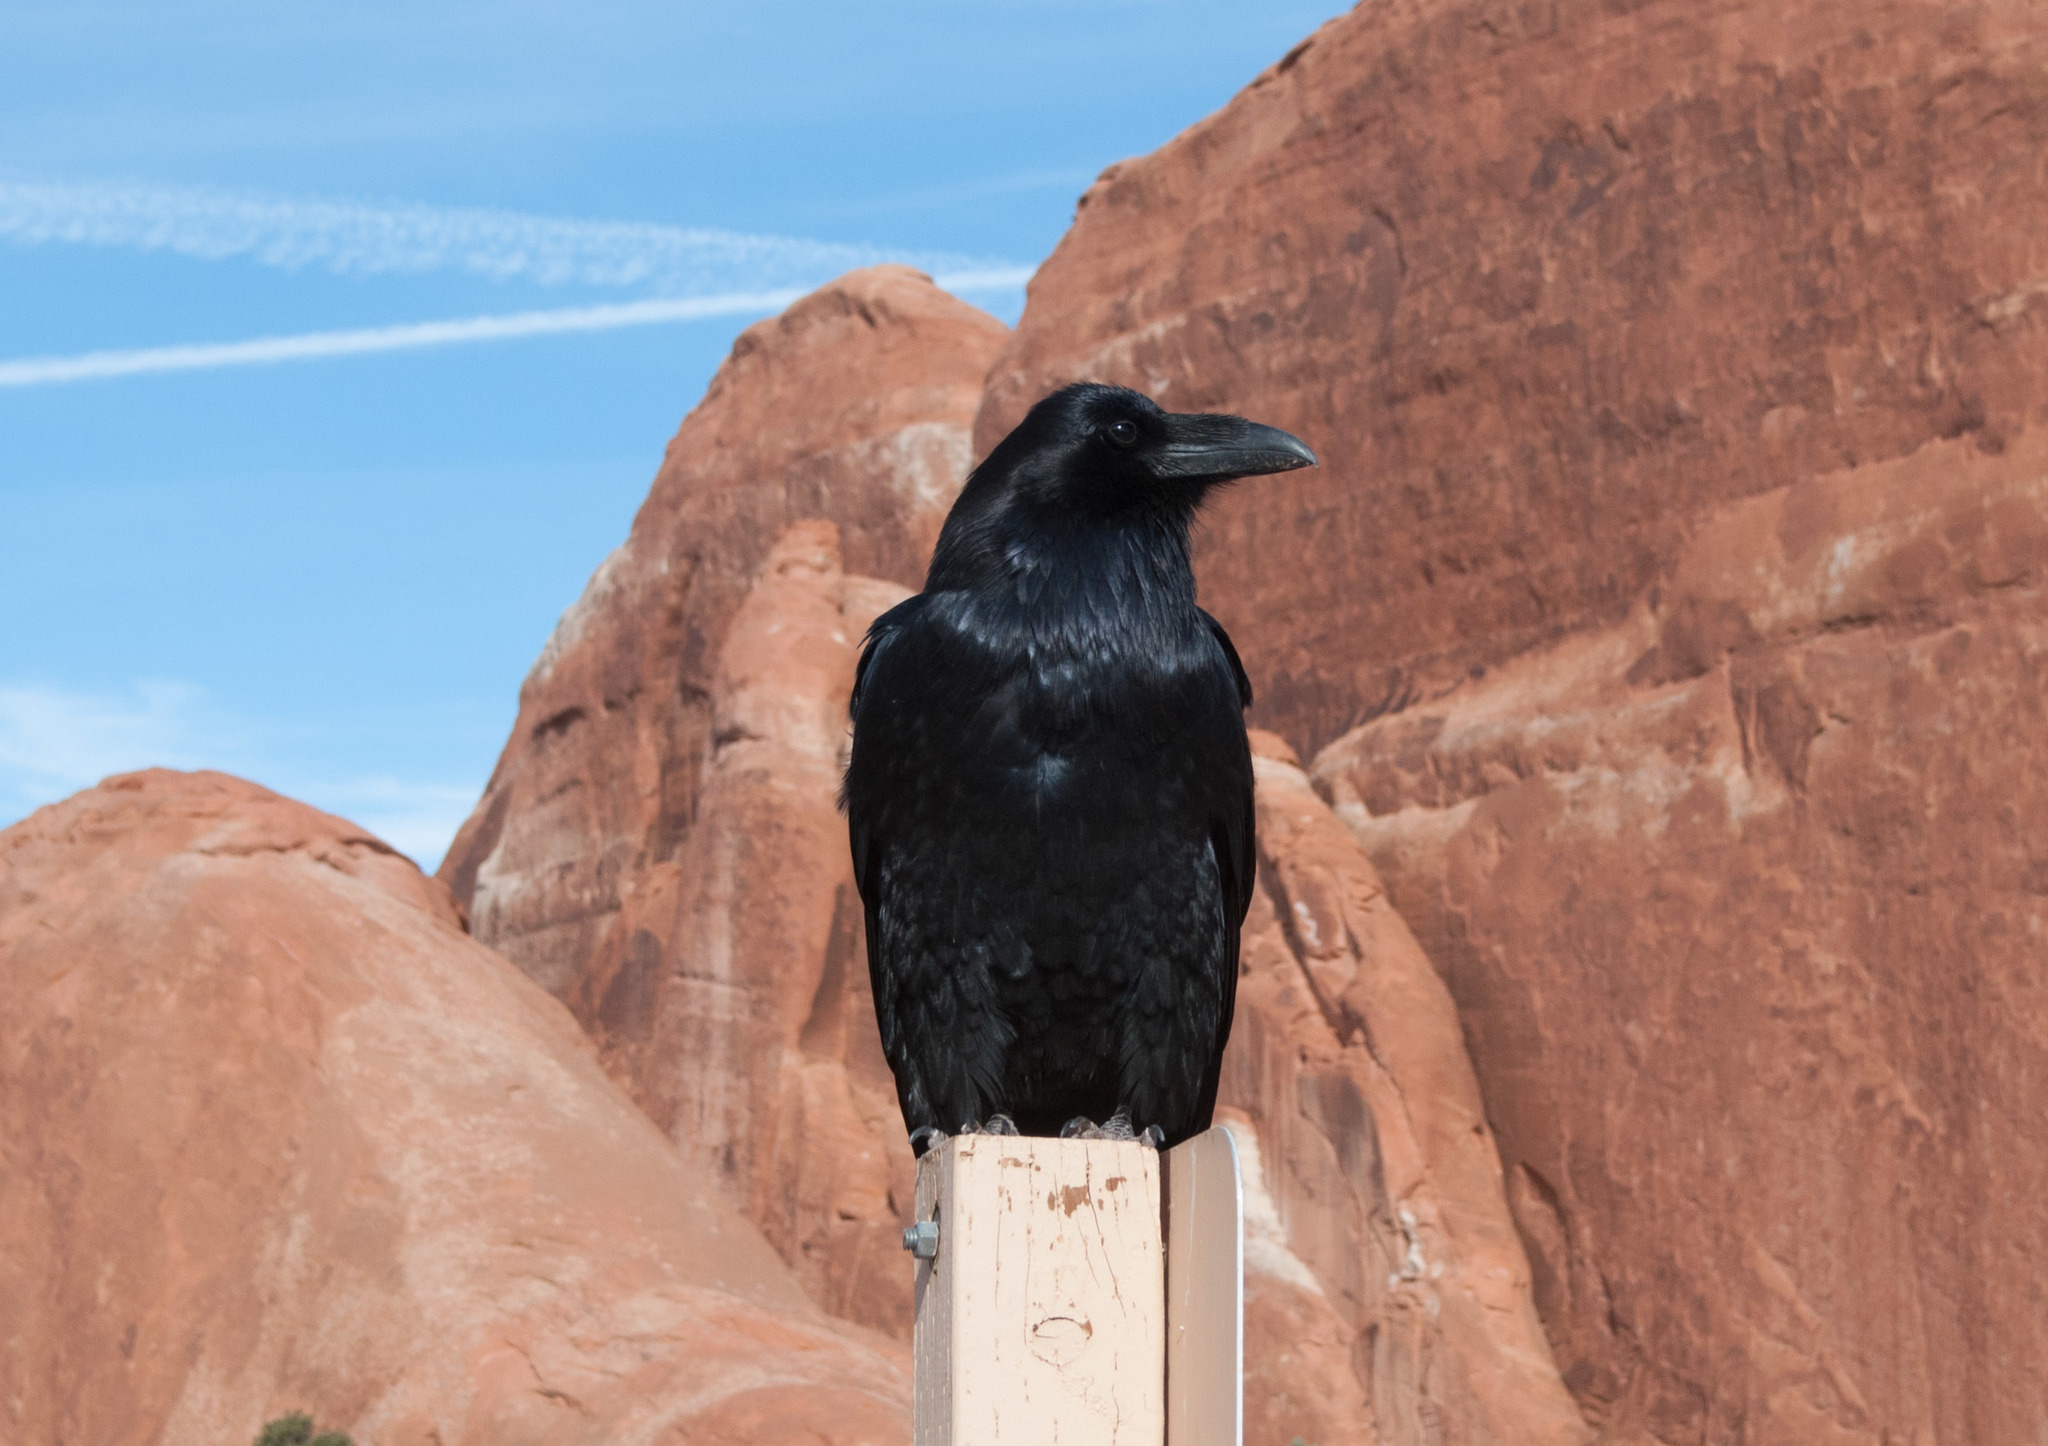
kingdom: Animalia
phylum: Chordata
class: Aves
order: Passeriformes
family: Corvidae
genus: Corvus
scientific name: Corvus corax
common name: Common raven
